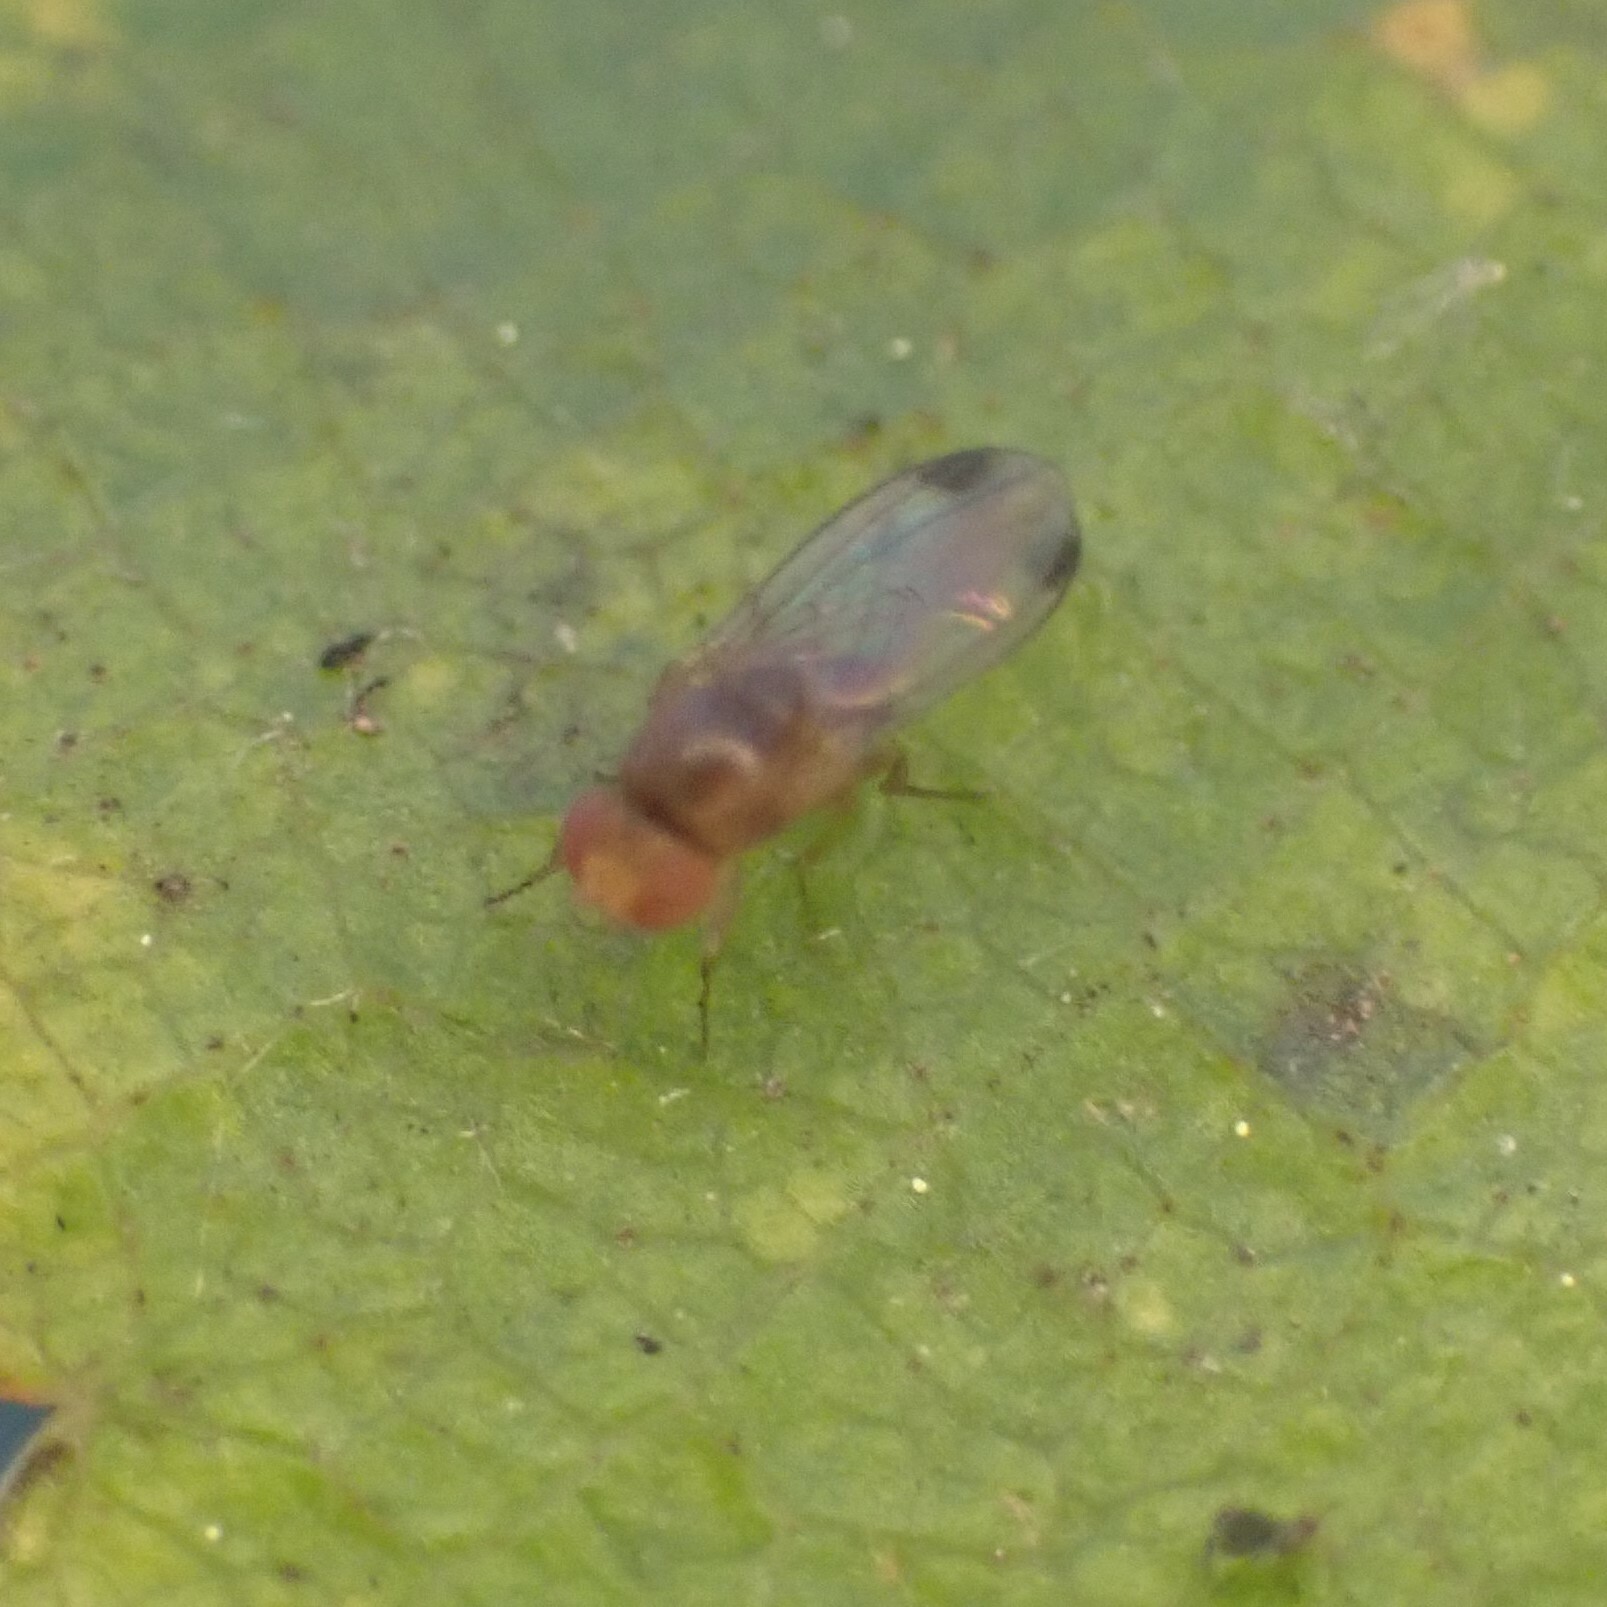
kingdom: Animalia
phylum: Arthropoda
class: Insecta
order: Diptera
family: Drosophilidae
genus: Drosophila
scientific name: Drosophila suzukii
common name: Spotted-wing drosophila
